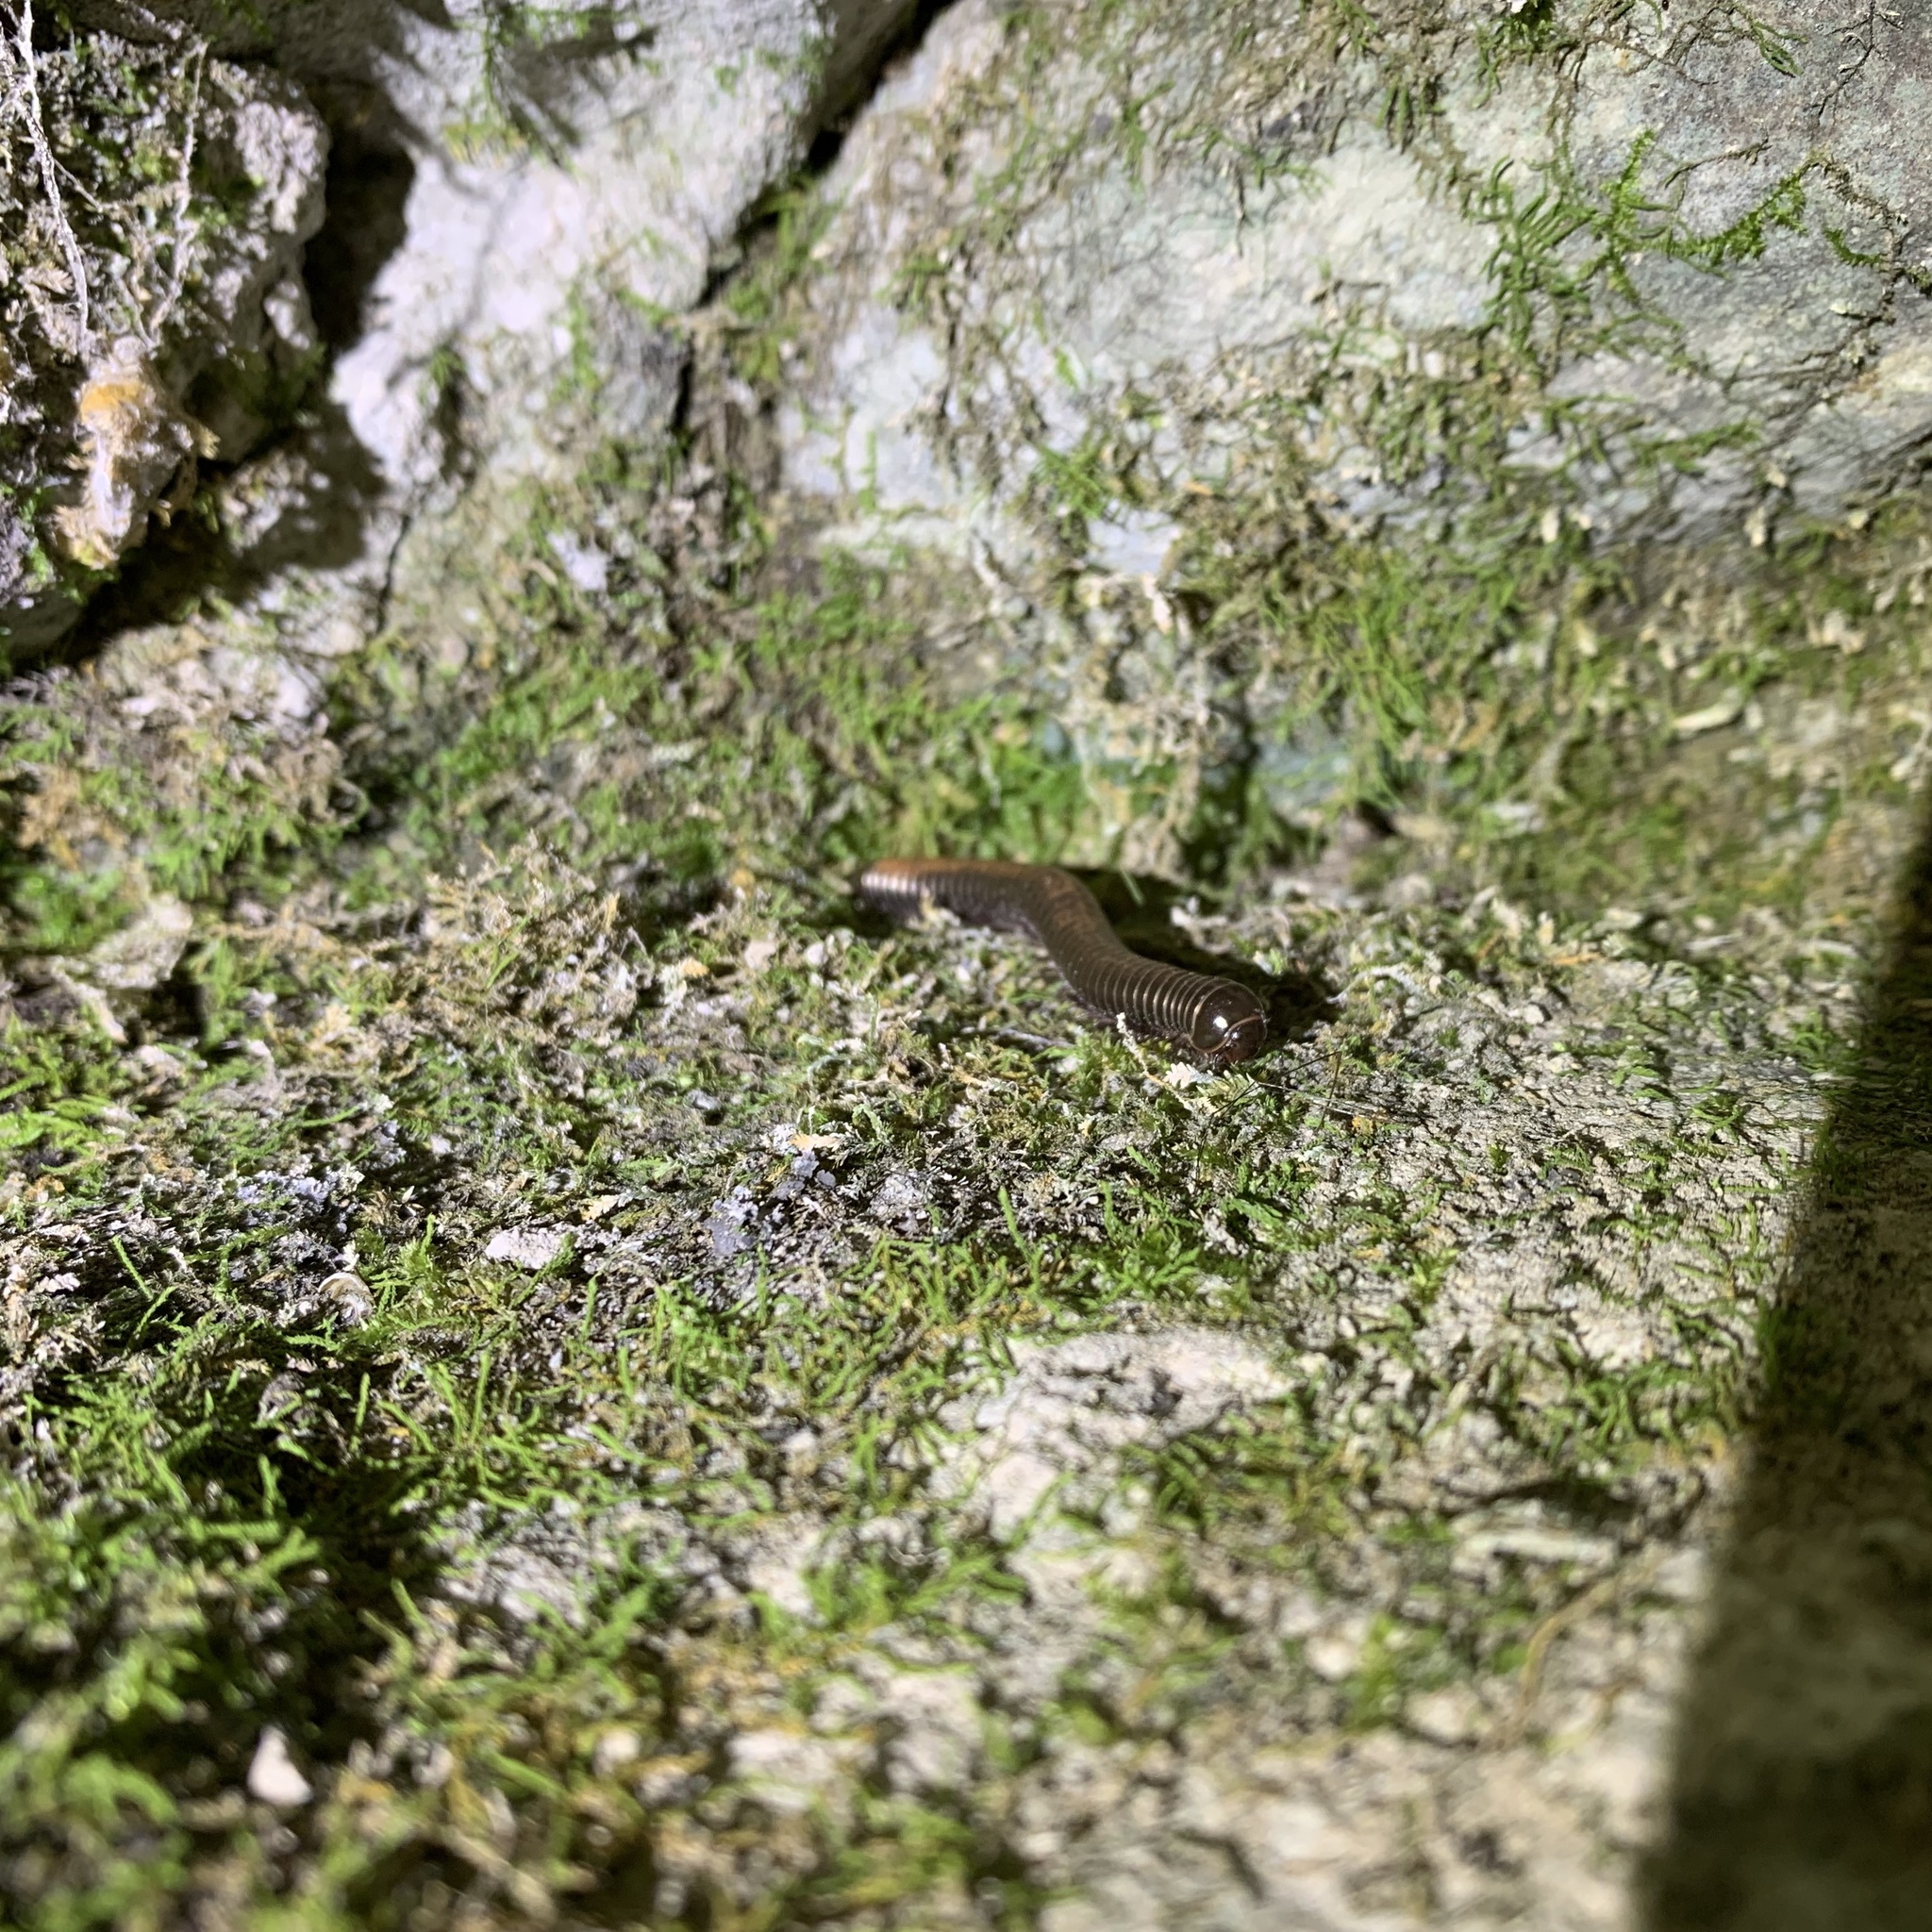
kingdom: Animalia
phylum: Arthropoda
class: Diplopoda
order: Spirostreptida
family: Choctellidae
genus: Choctella
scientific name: Choctella cumminsi
